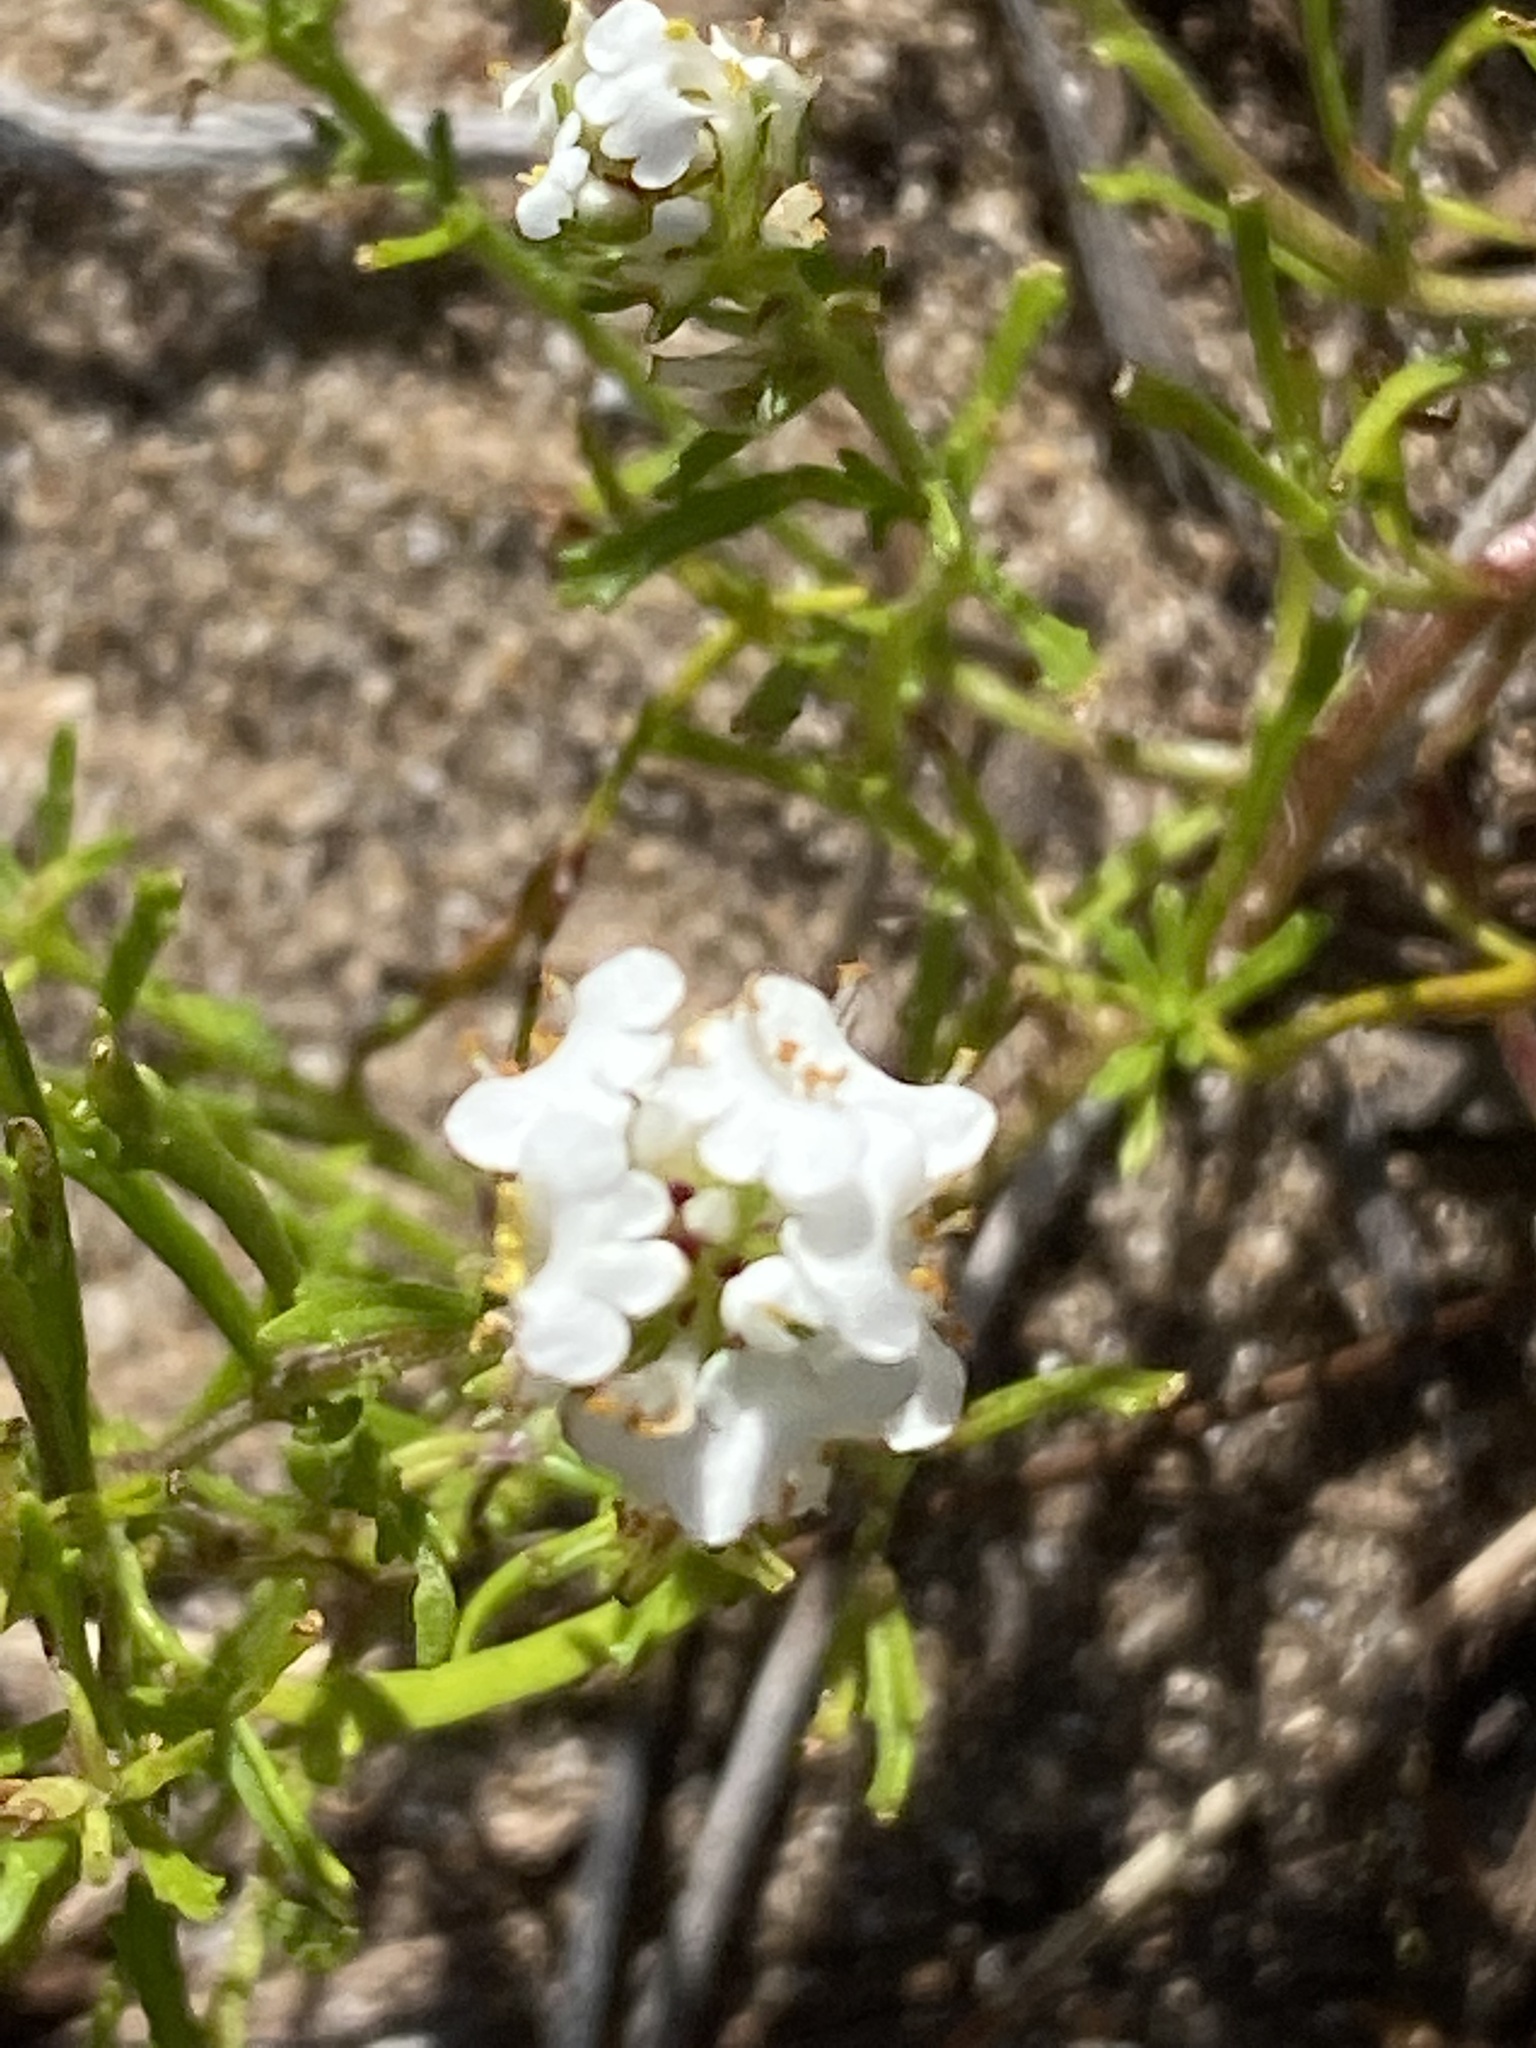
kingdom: Plantae
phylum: Tracheophyta
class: Magnoliopsida
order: Lamiales
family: Scrophulariaceae
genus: Dischisma
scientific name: Dischisma ciliatum
